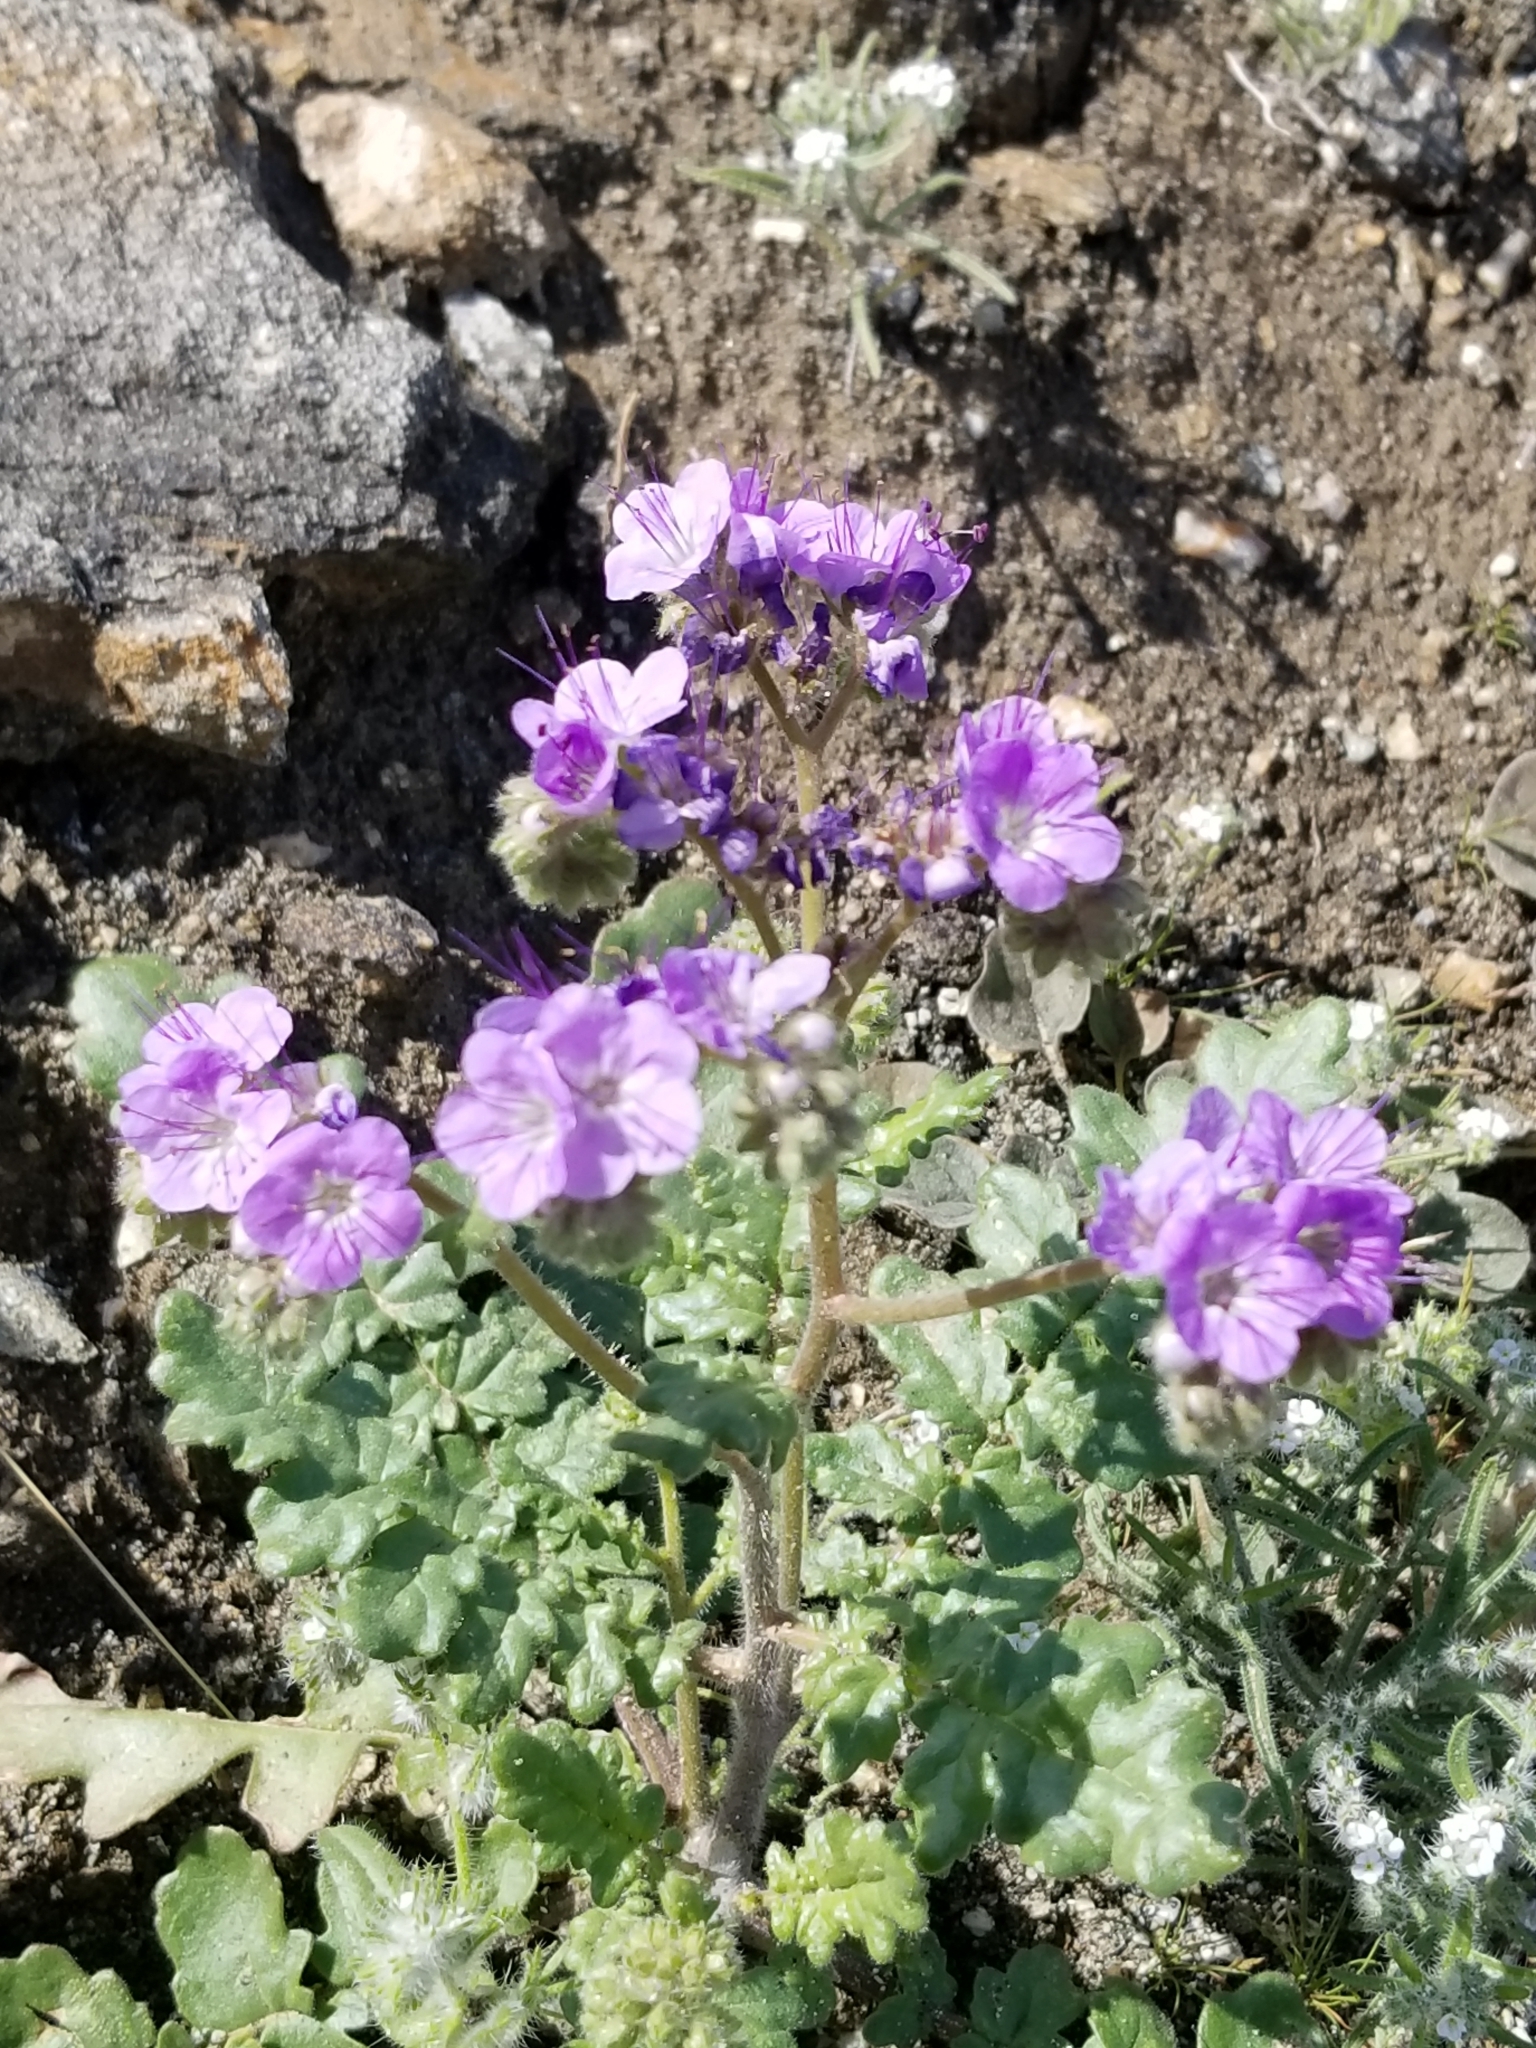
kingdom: Plantae
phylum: Tracheophyta
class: Magnoliopsida
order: Boraginales
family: Hydrophyllaceae
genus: Phacelia
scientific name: Phacelia crenulata
